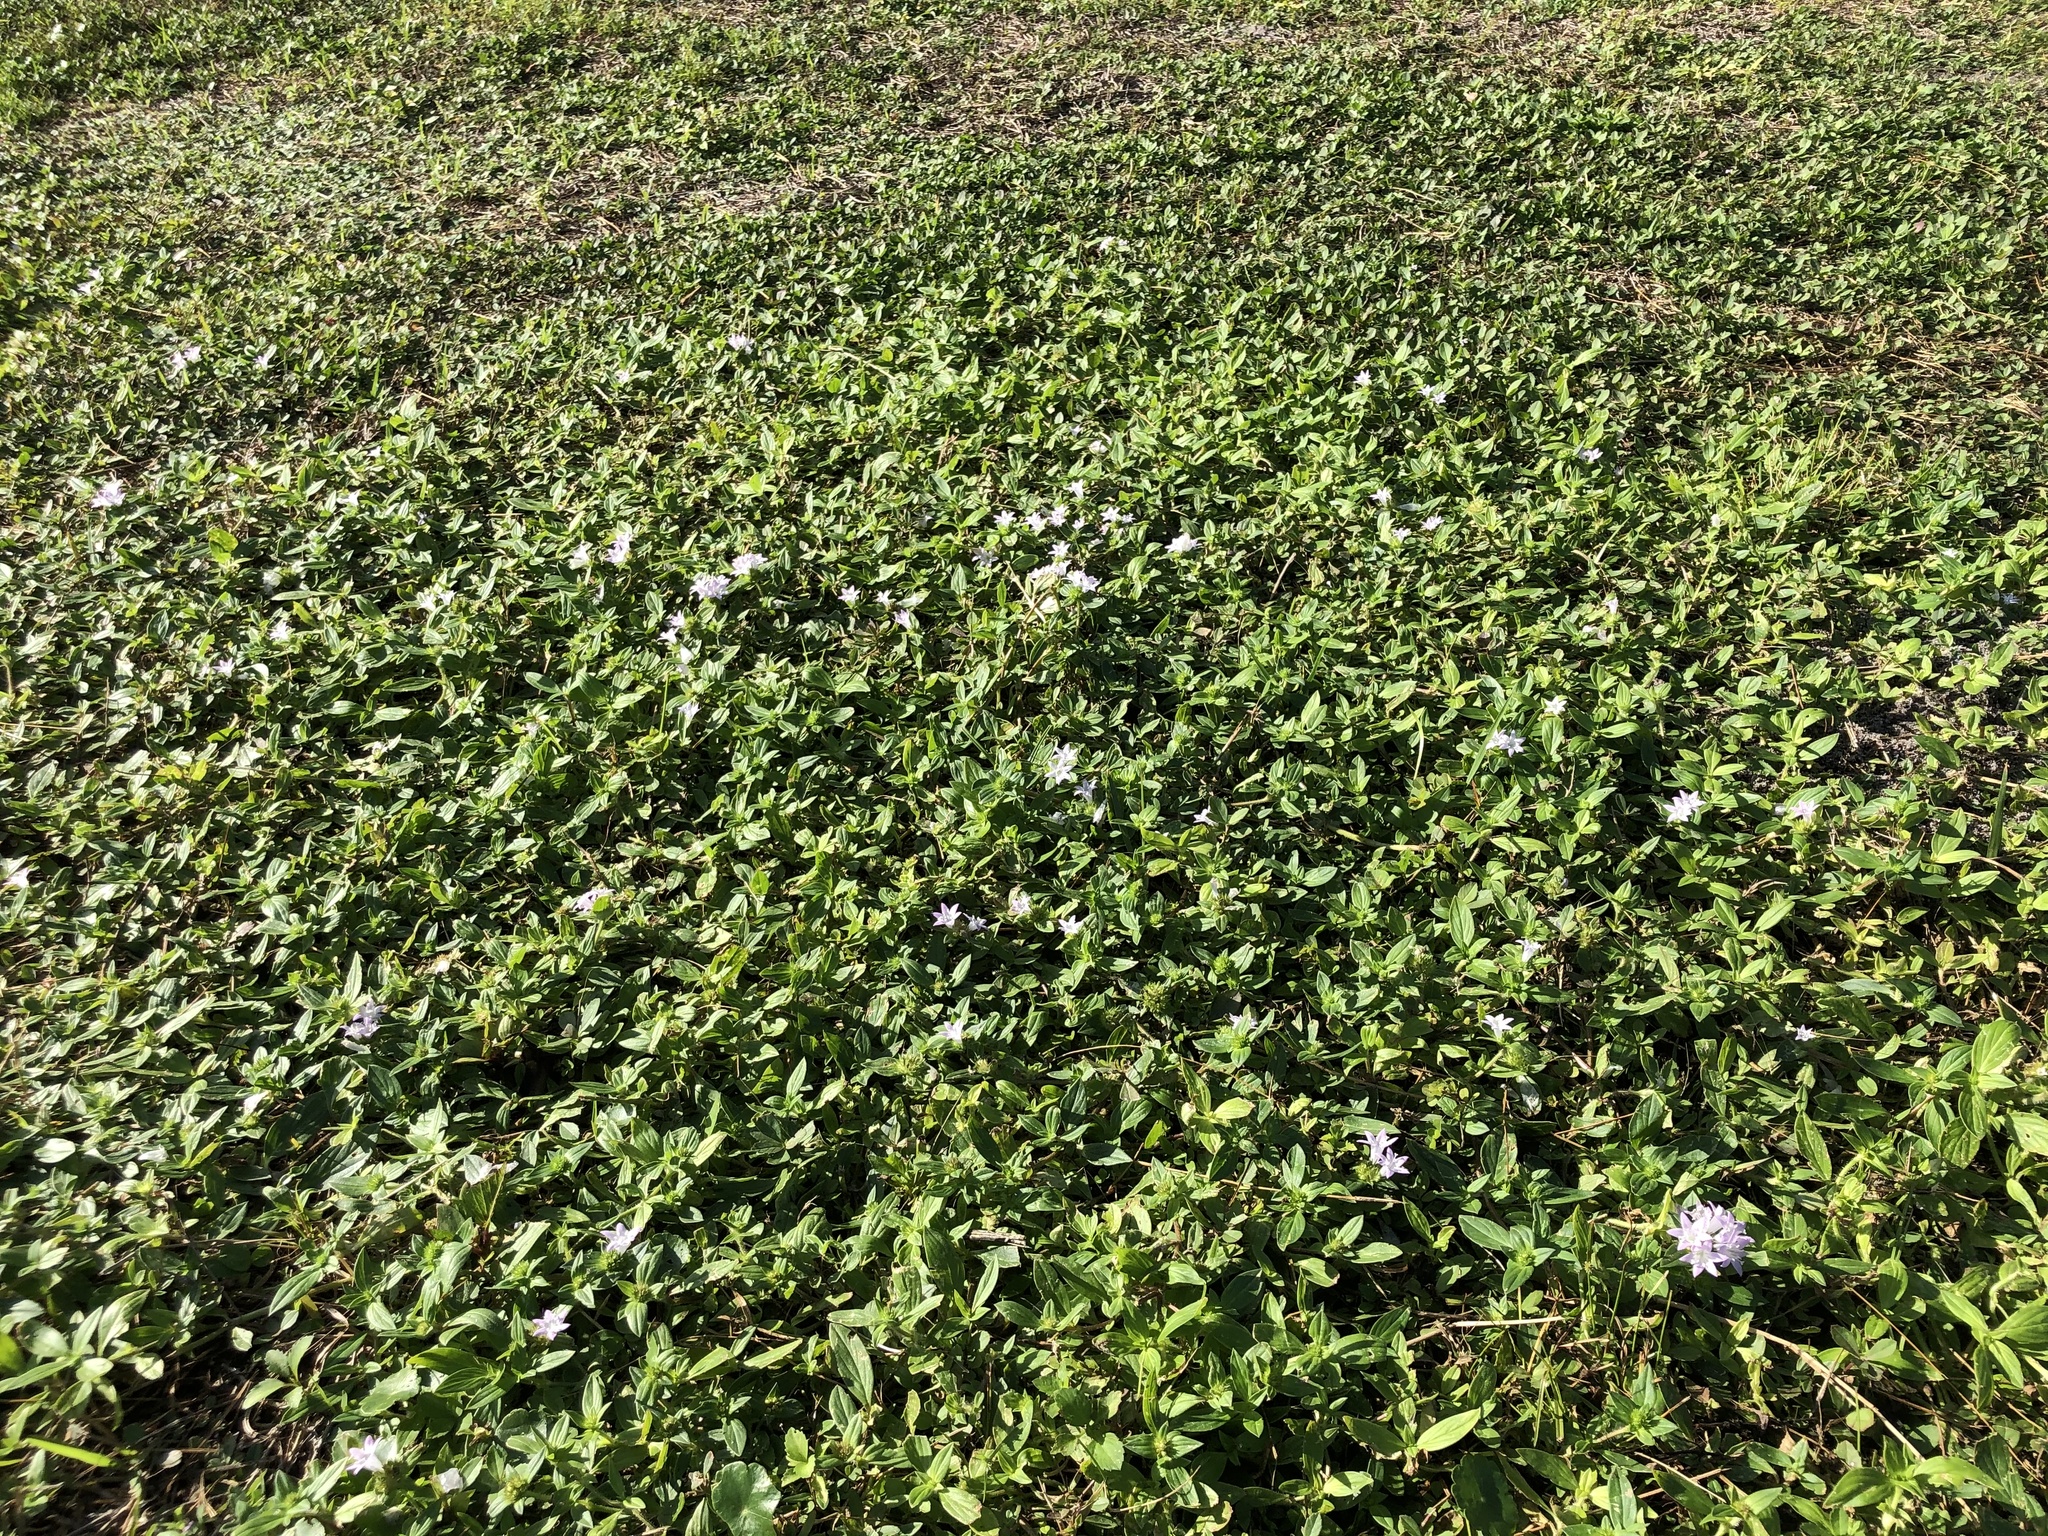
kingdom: Plantae
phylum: Tracheophyta
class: Magnoliopsida
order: Gentianales
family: Rubiaceae
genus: Richardia
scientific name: Richardia grandiflora
